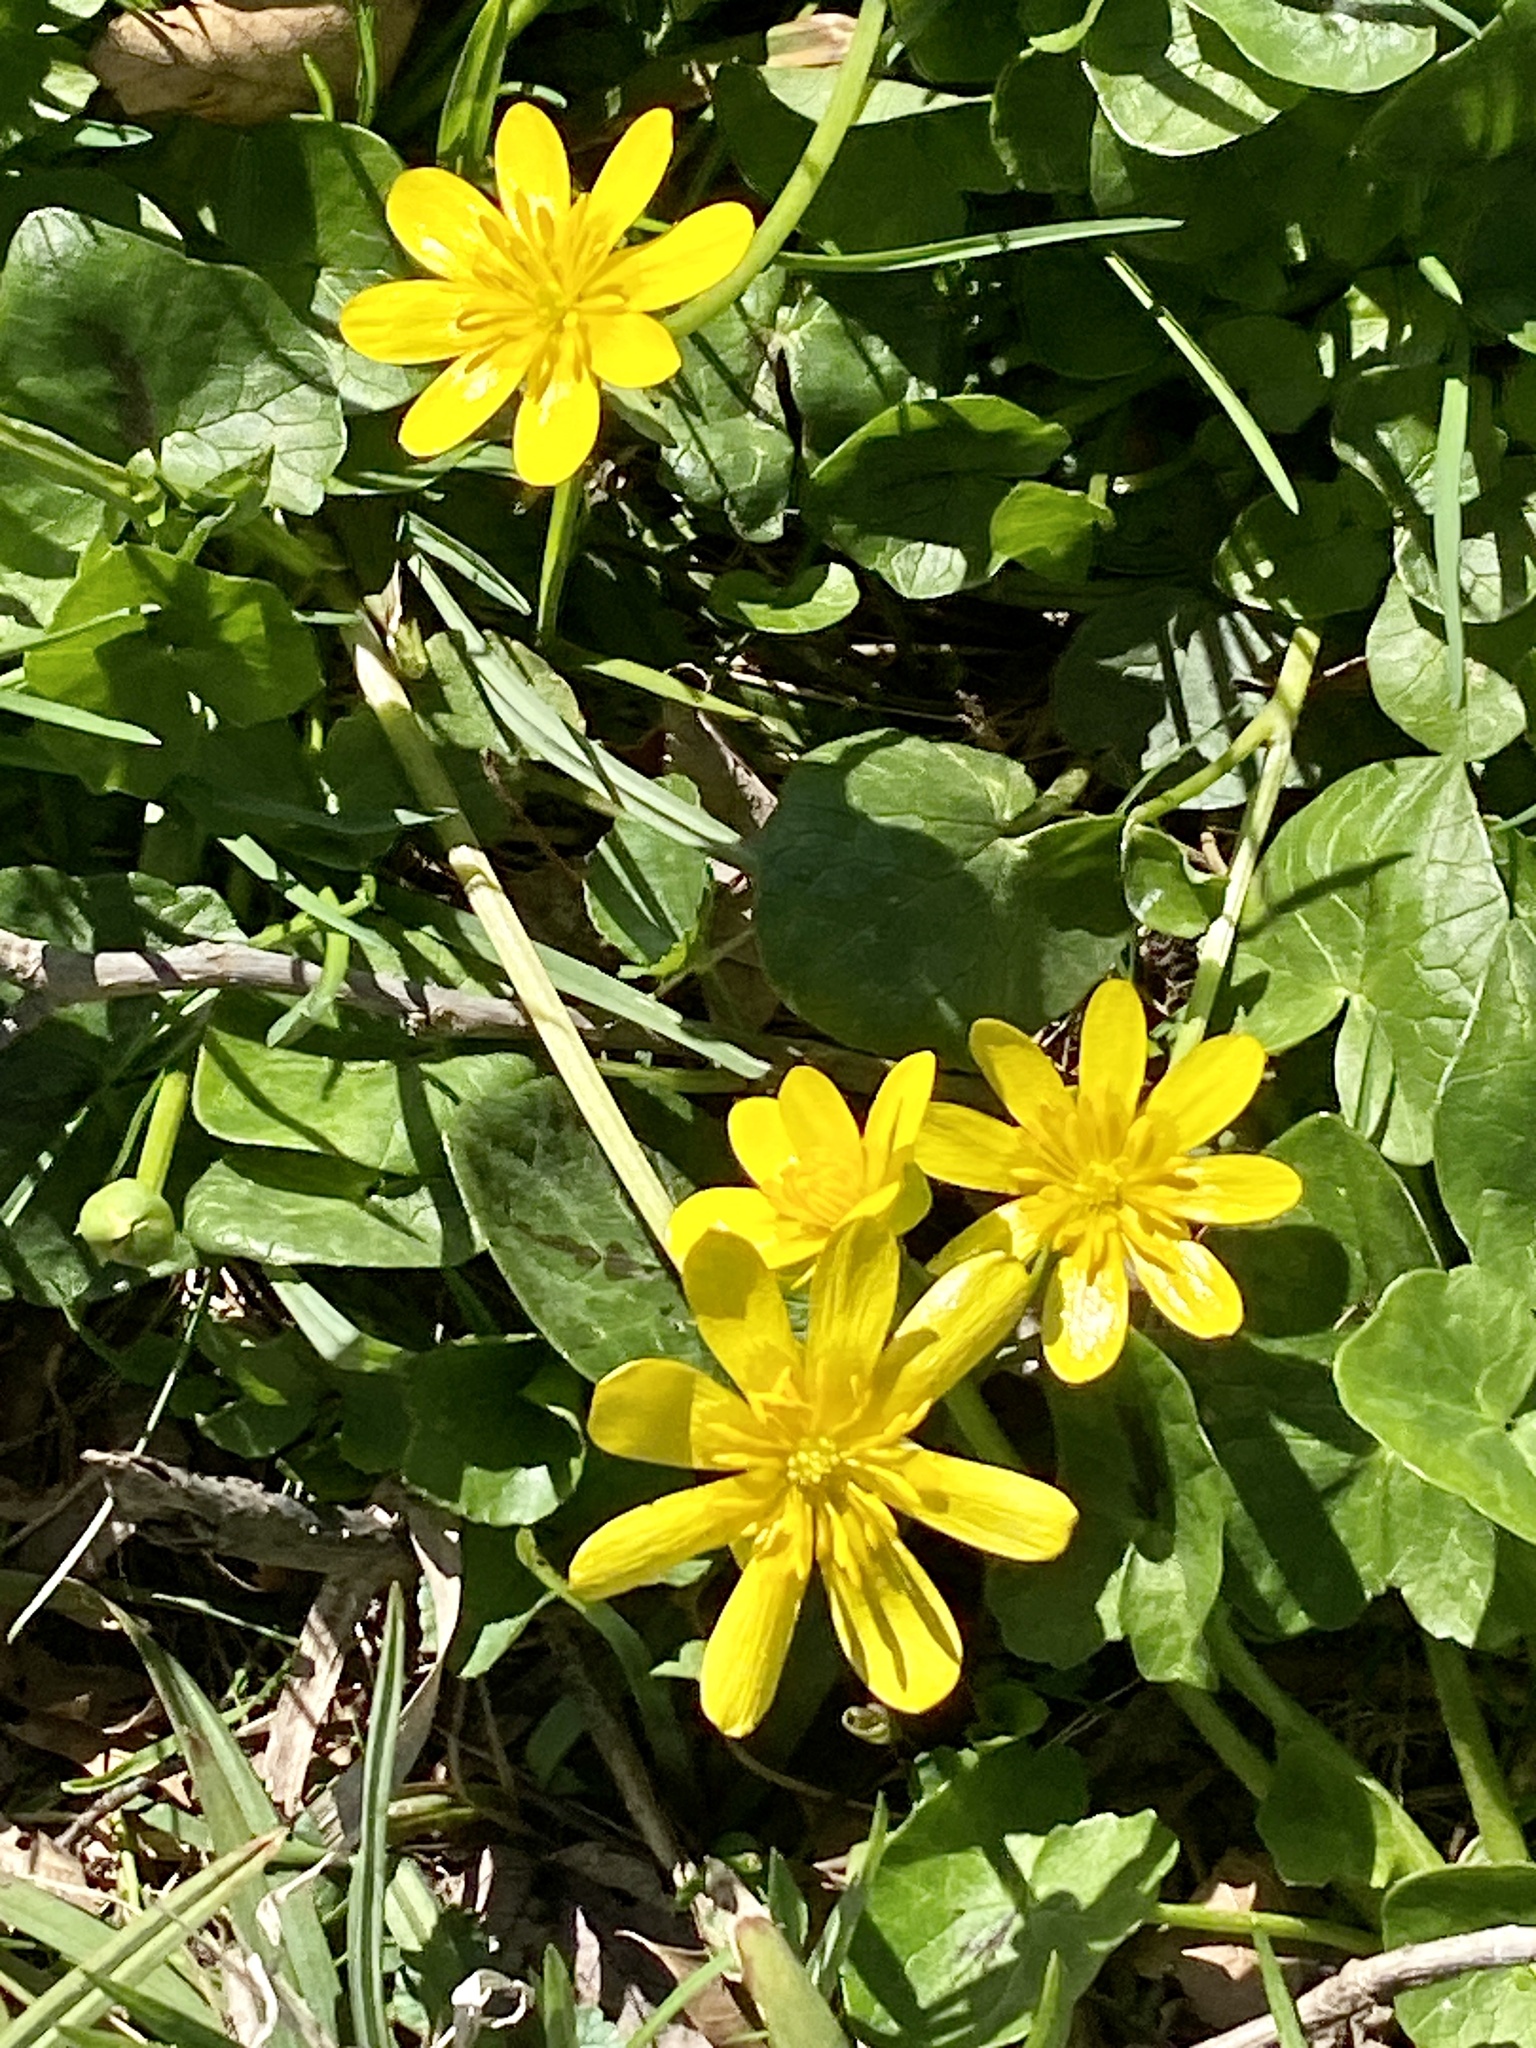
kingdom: Plantae
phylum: Tracheophyta
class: Magnoliopsida
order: Ranunculales
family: Ranunculaceae
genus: Ficaria
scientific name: Ficaria verna
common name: Lesser celandine
